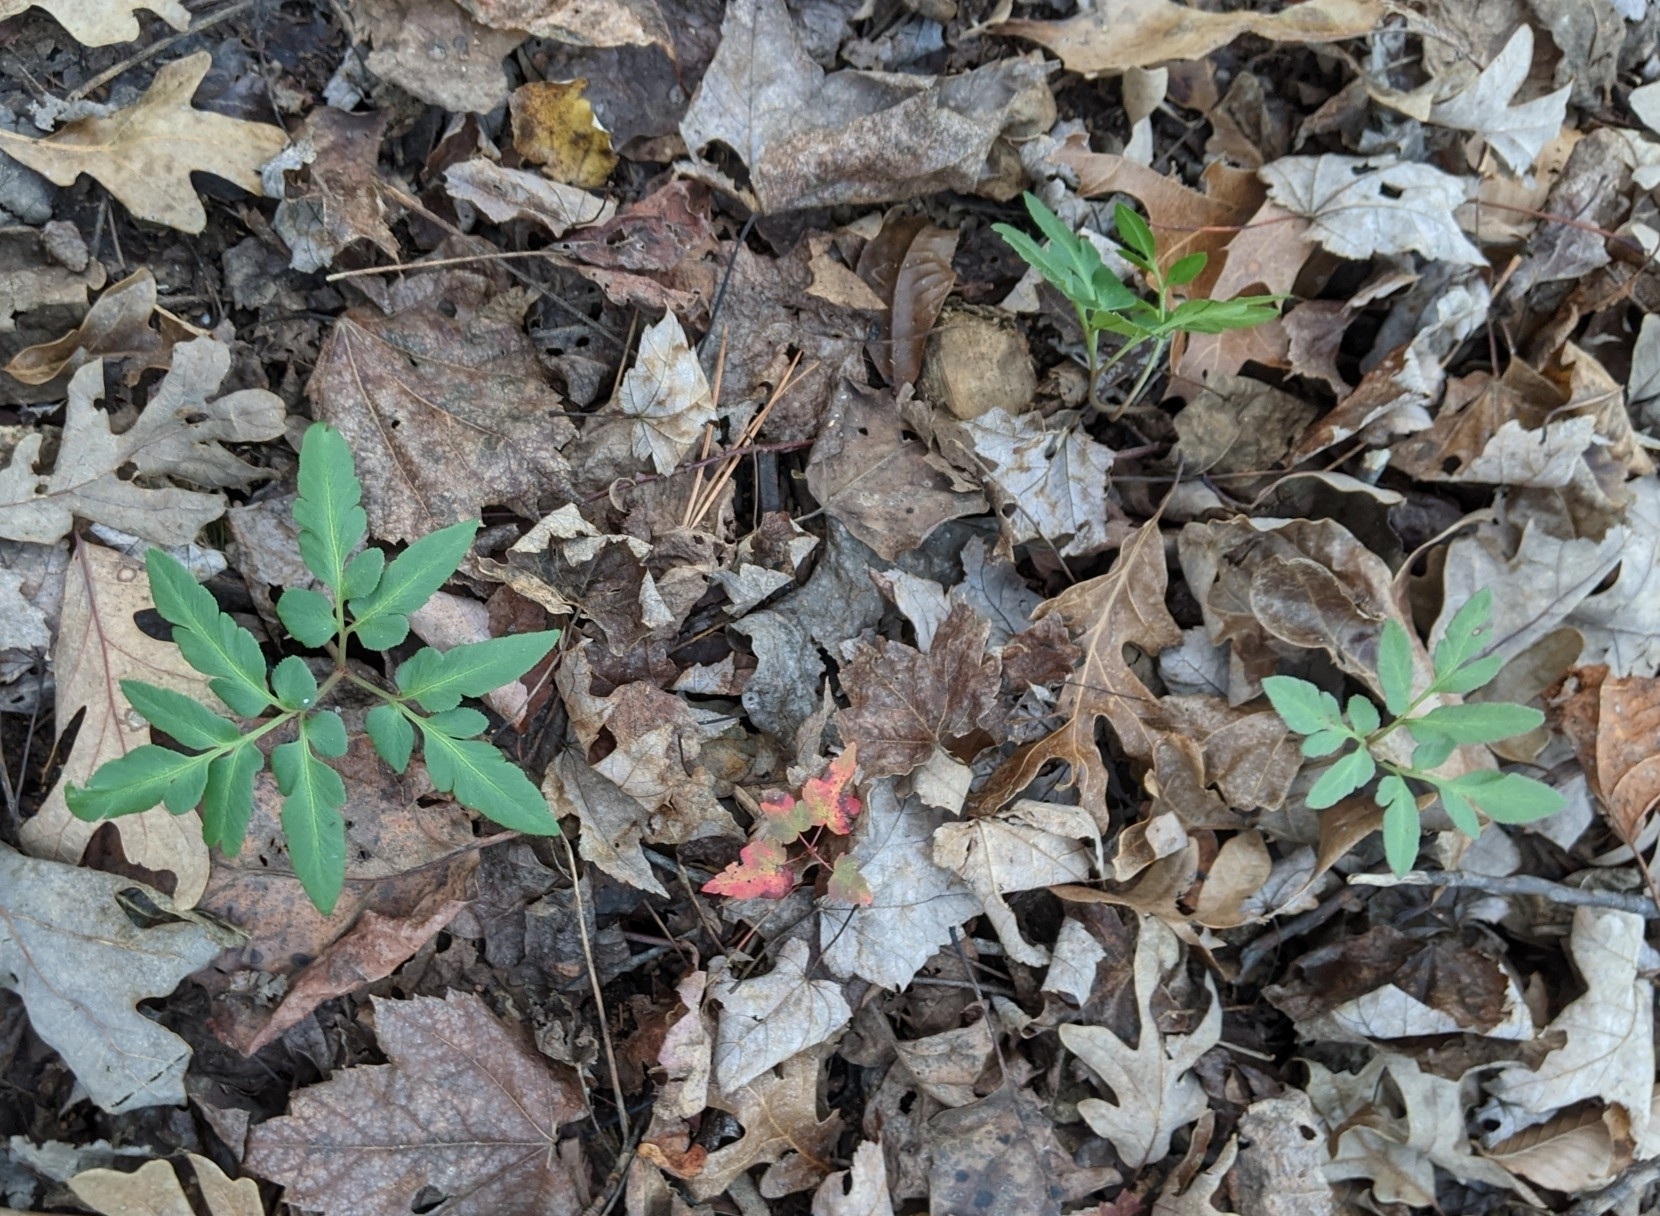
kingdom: Plantae
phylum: Tracheophyta
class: Polypodiopsida
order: Ophioglossales
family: Ophioglossaceae
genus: Sceptridium
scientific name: Sceptridium biternatum
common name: Sparse-lobed grapefern
